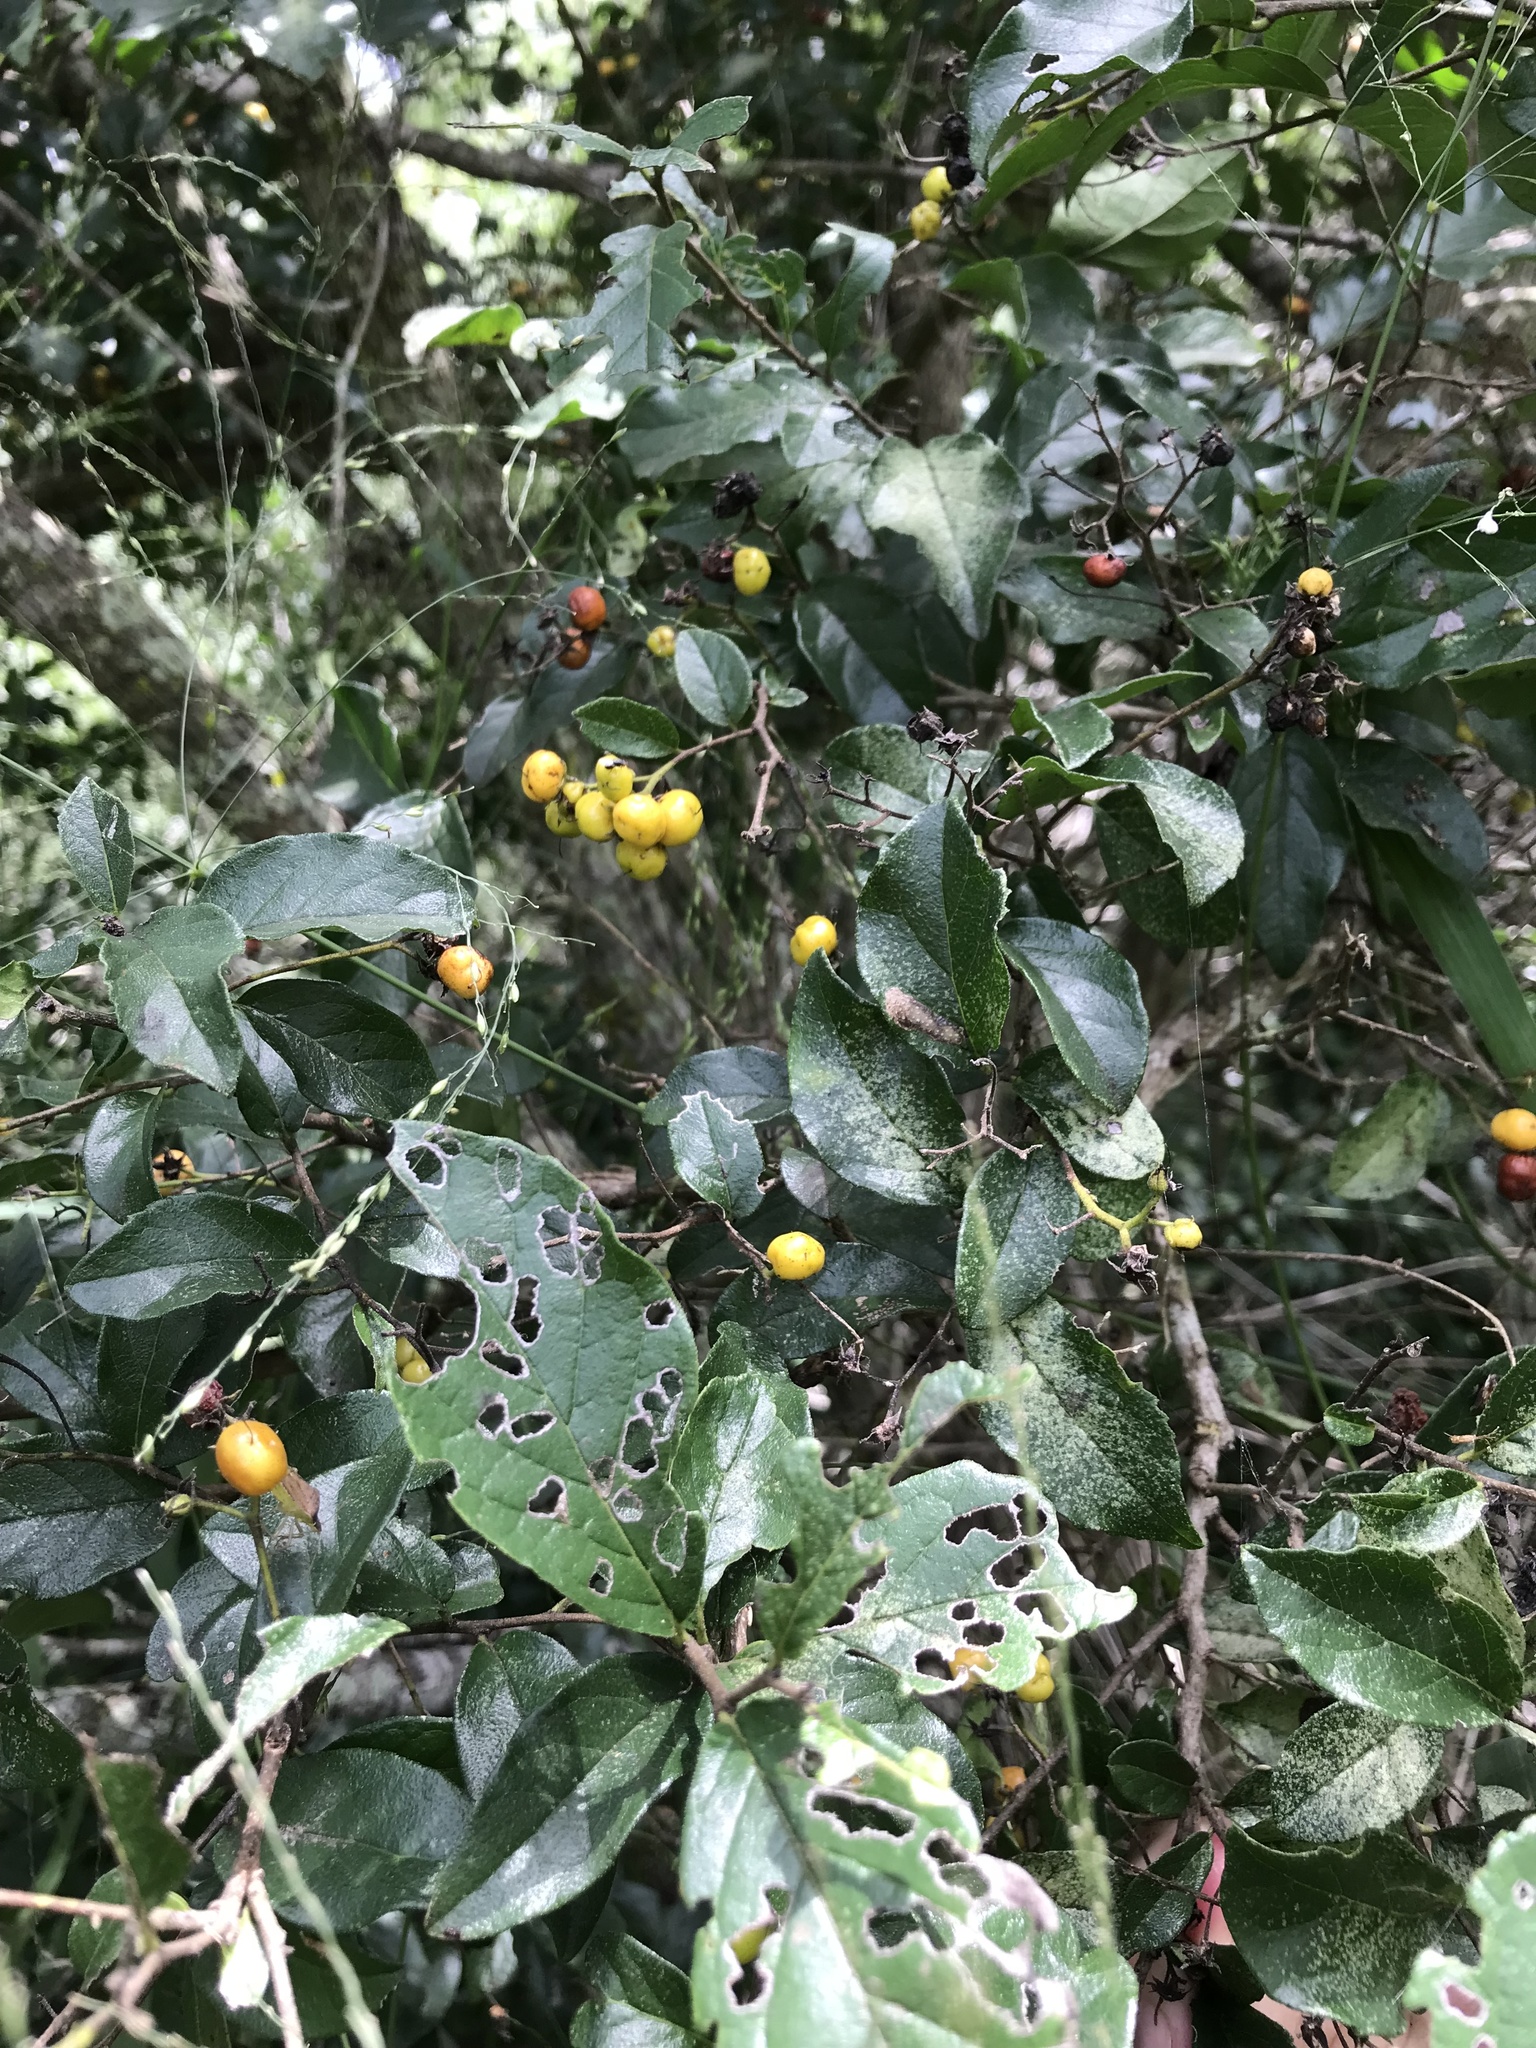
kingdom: Plantae
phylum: Tracheophyta
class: Magnoliopsida
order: Boraginales
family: Ehretiaceae
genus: Ehretia
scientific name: Ehretia anacua
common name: Sugarberry
